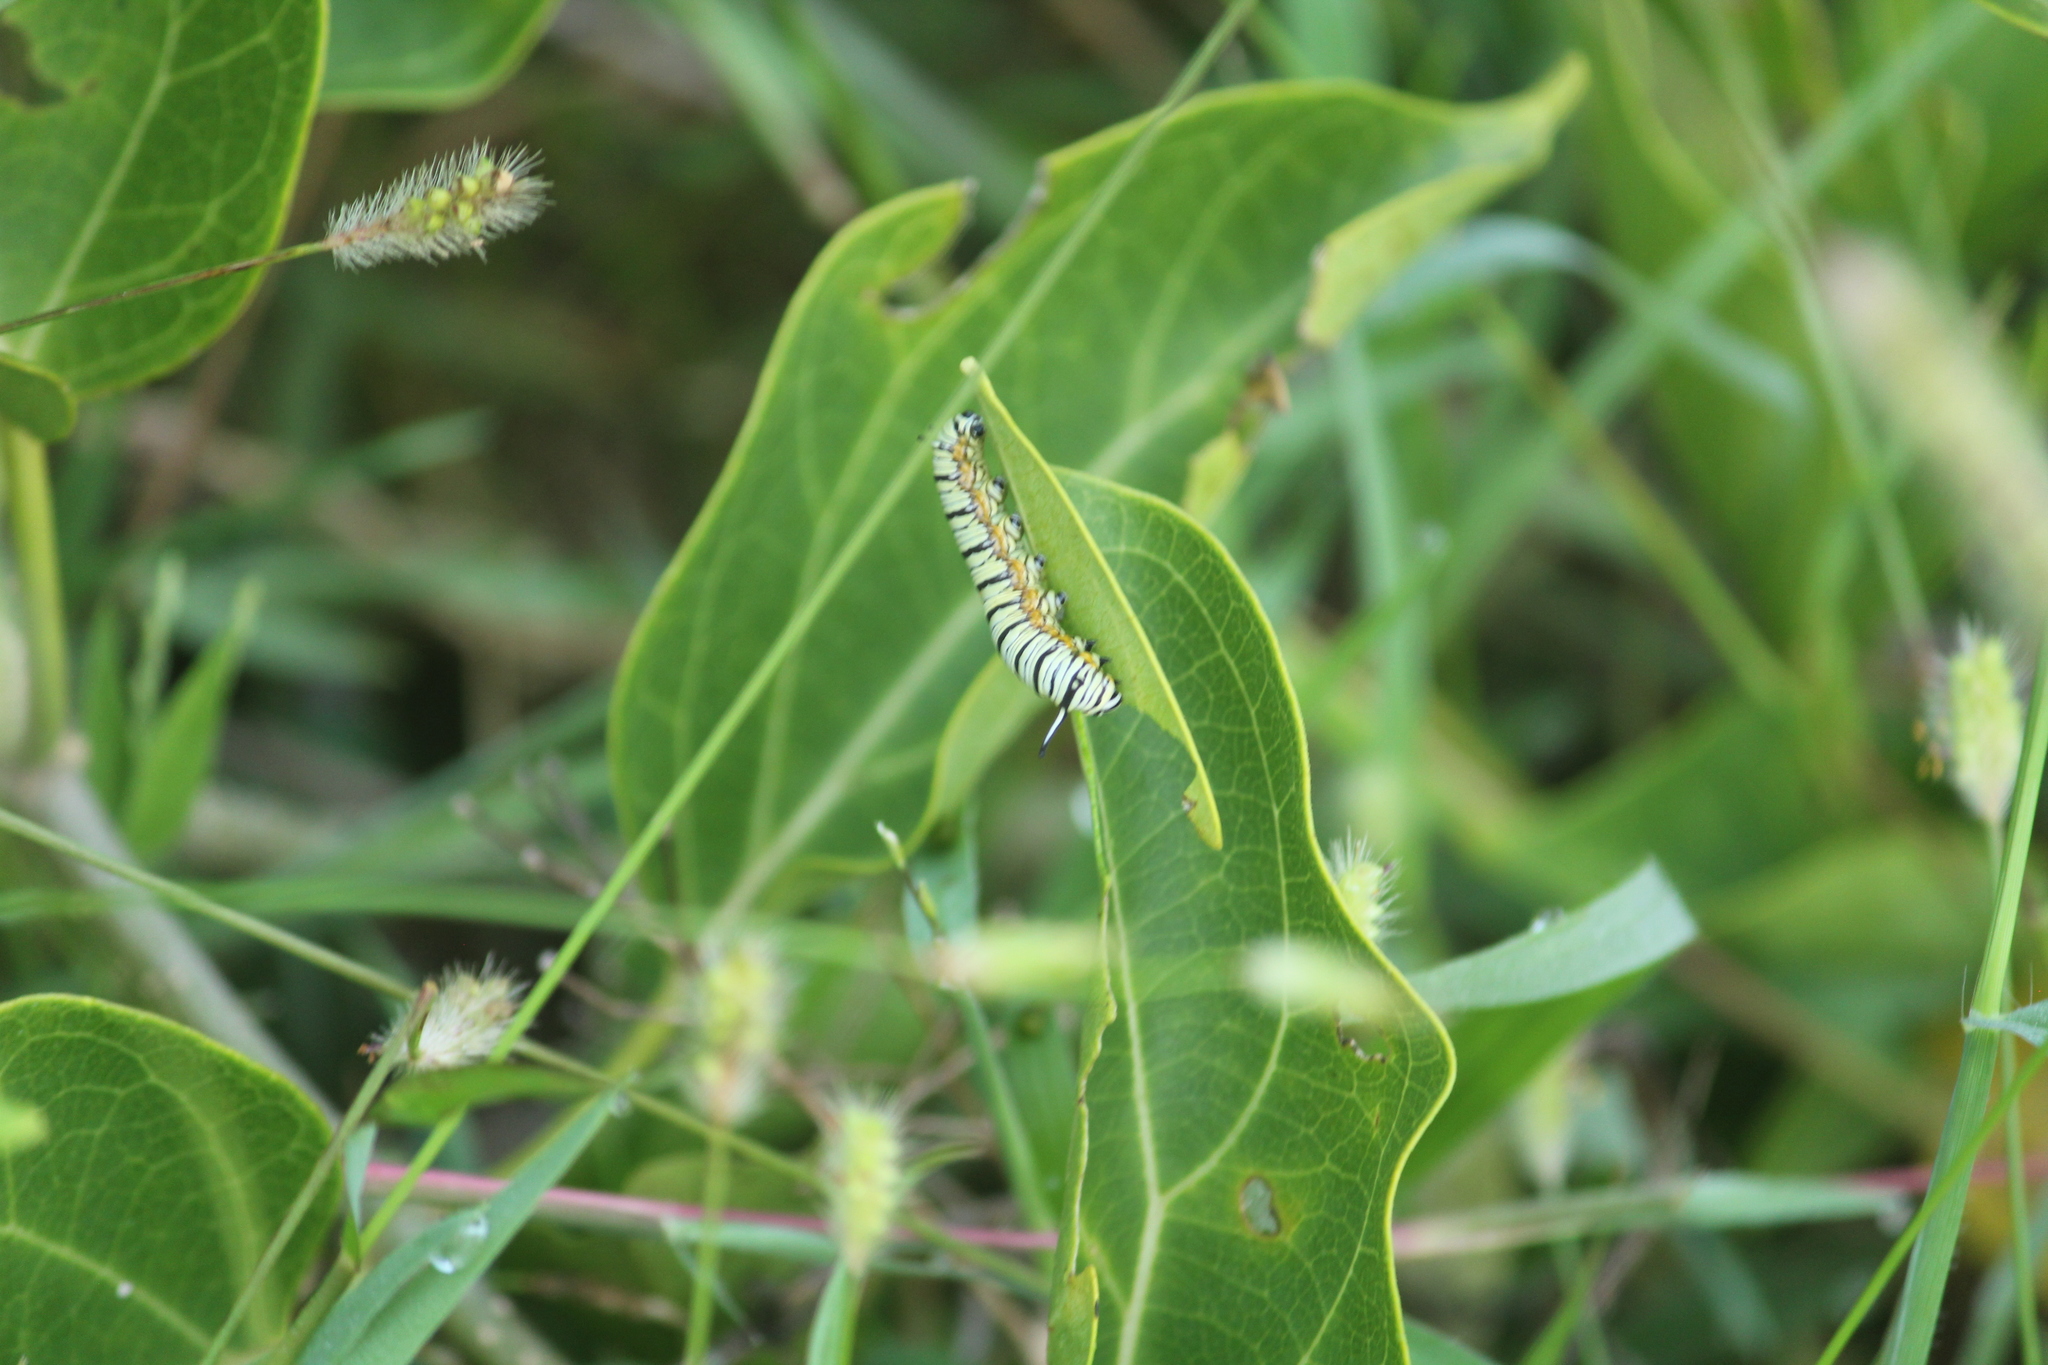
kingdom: Animalia
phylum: Arthropoda
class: Insecta
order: Lepidoptera
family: Nymphalidae
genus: Tirumala
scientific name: Tirumala limniace
